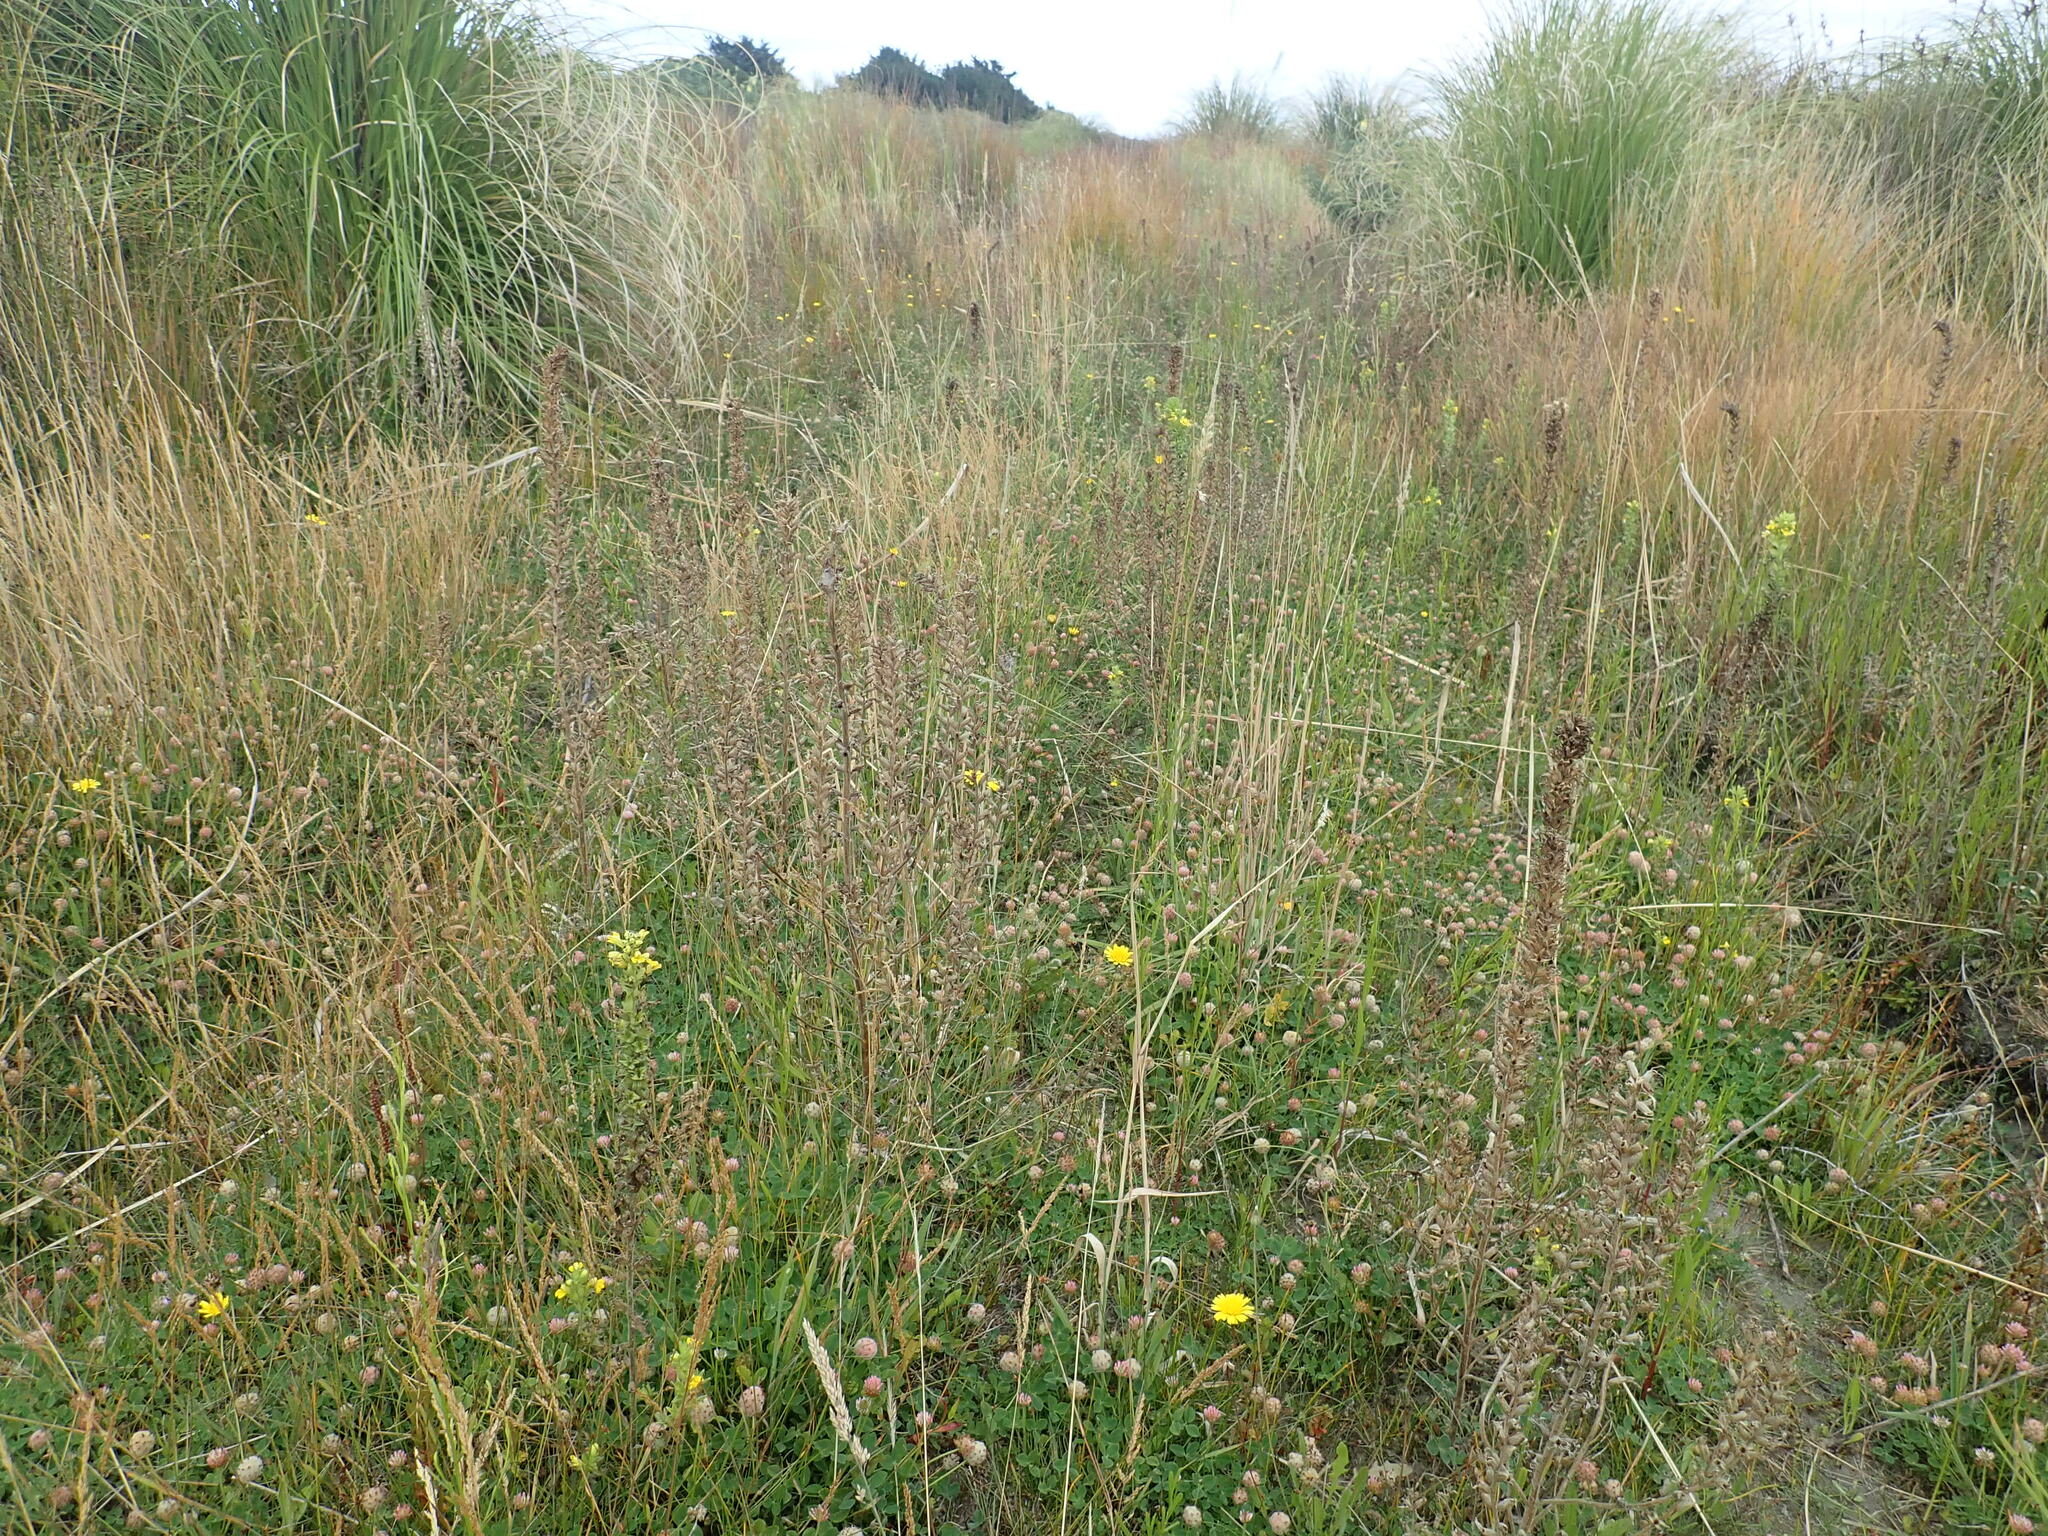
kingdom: Plantae
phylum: Tracheophyta
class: Magnoliopsida
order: Lamiales
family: Orobanchaceae
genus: Bellardia
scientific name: Bellardia viscosa
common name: Sticky parentucellia
